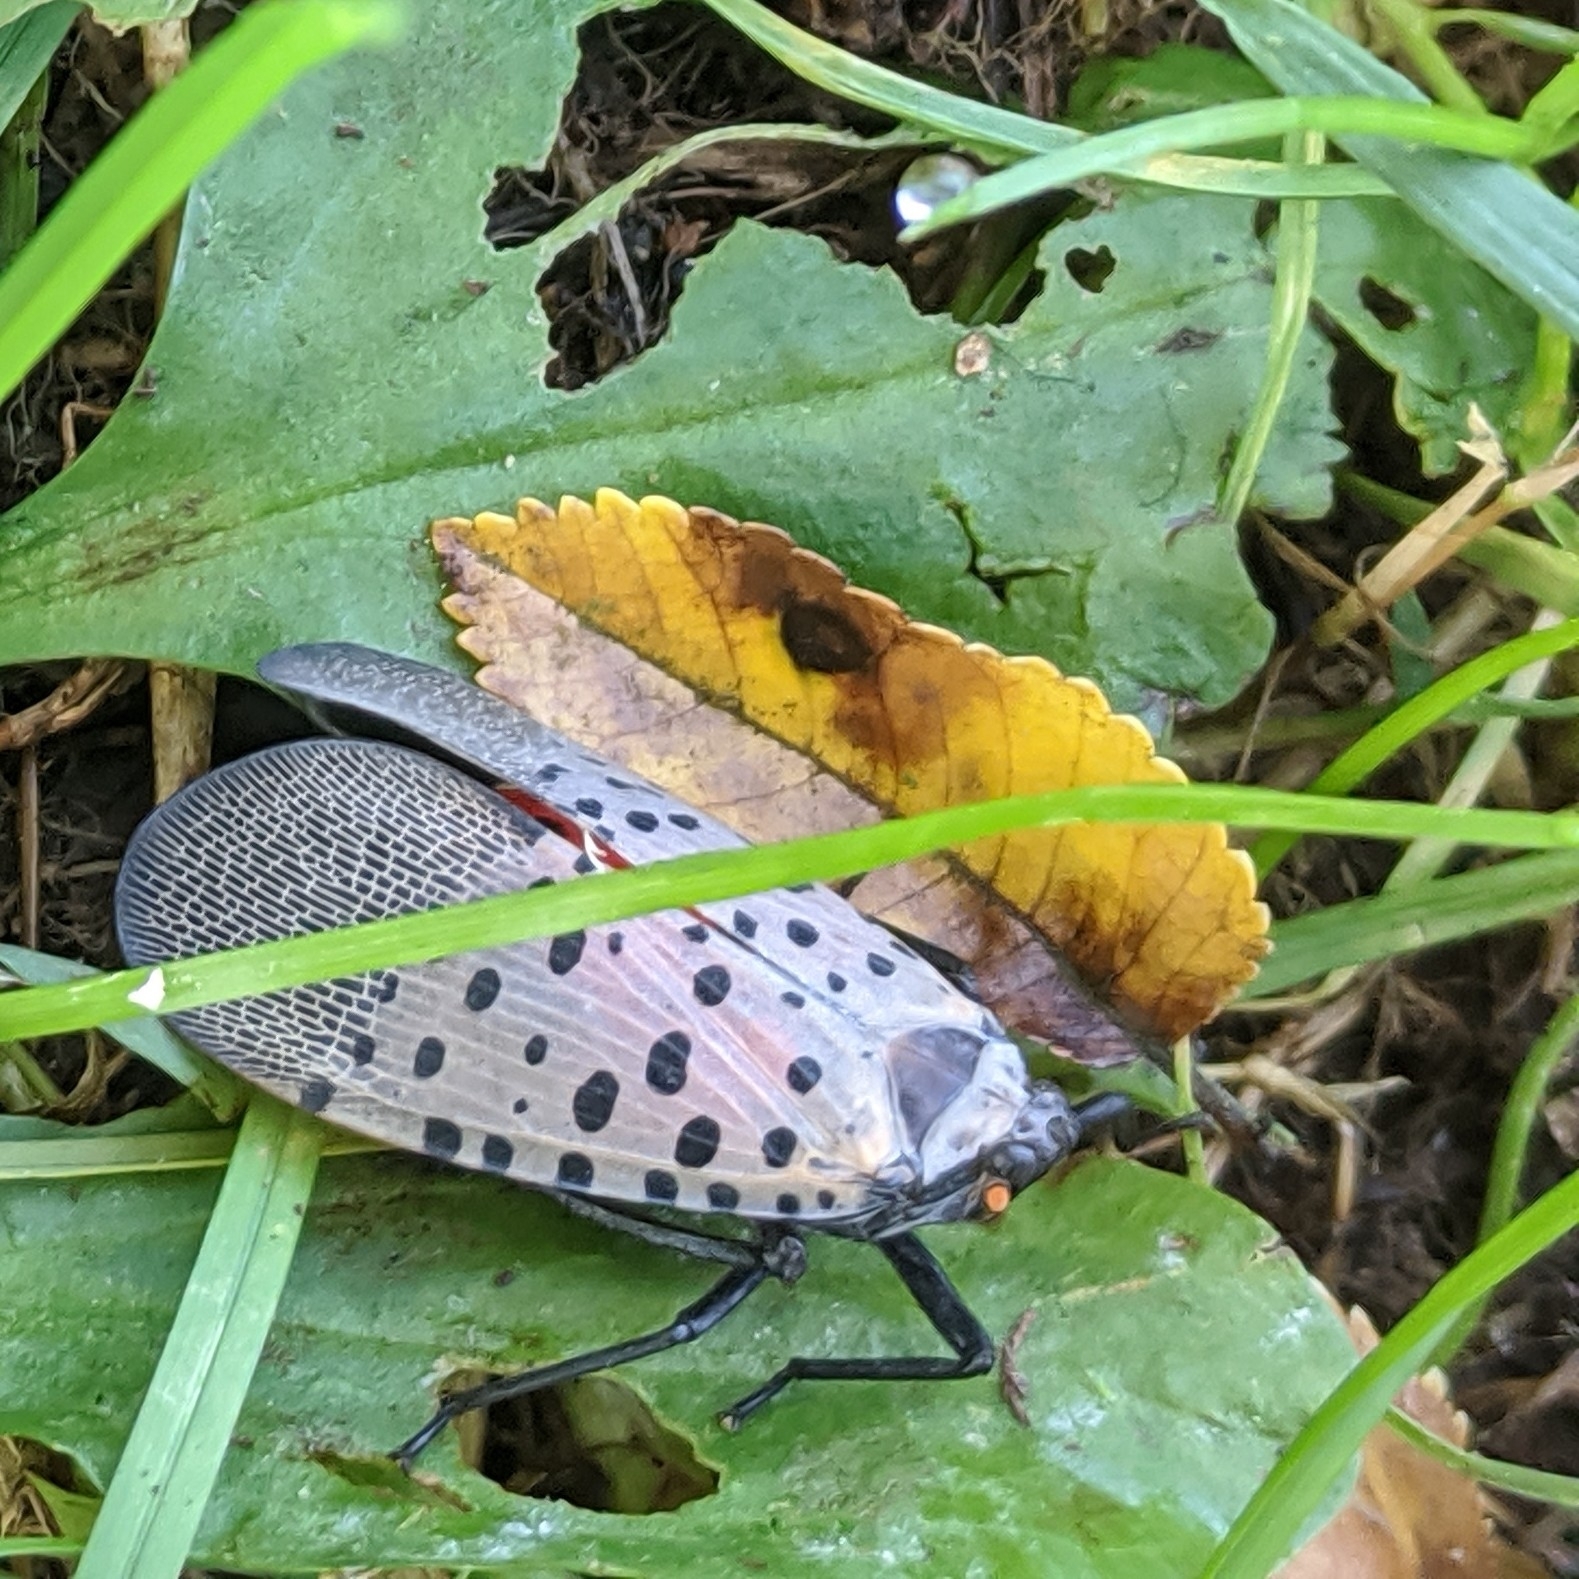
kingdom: Animalia
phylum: Arthropoda
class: Insecta
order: Hemiptera
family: Fulgoridae
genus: Lycorma
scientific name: Lycorma delicatula
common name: Spotted lanternfly
